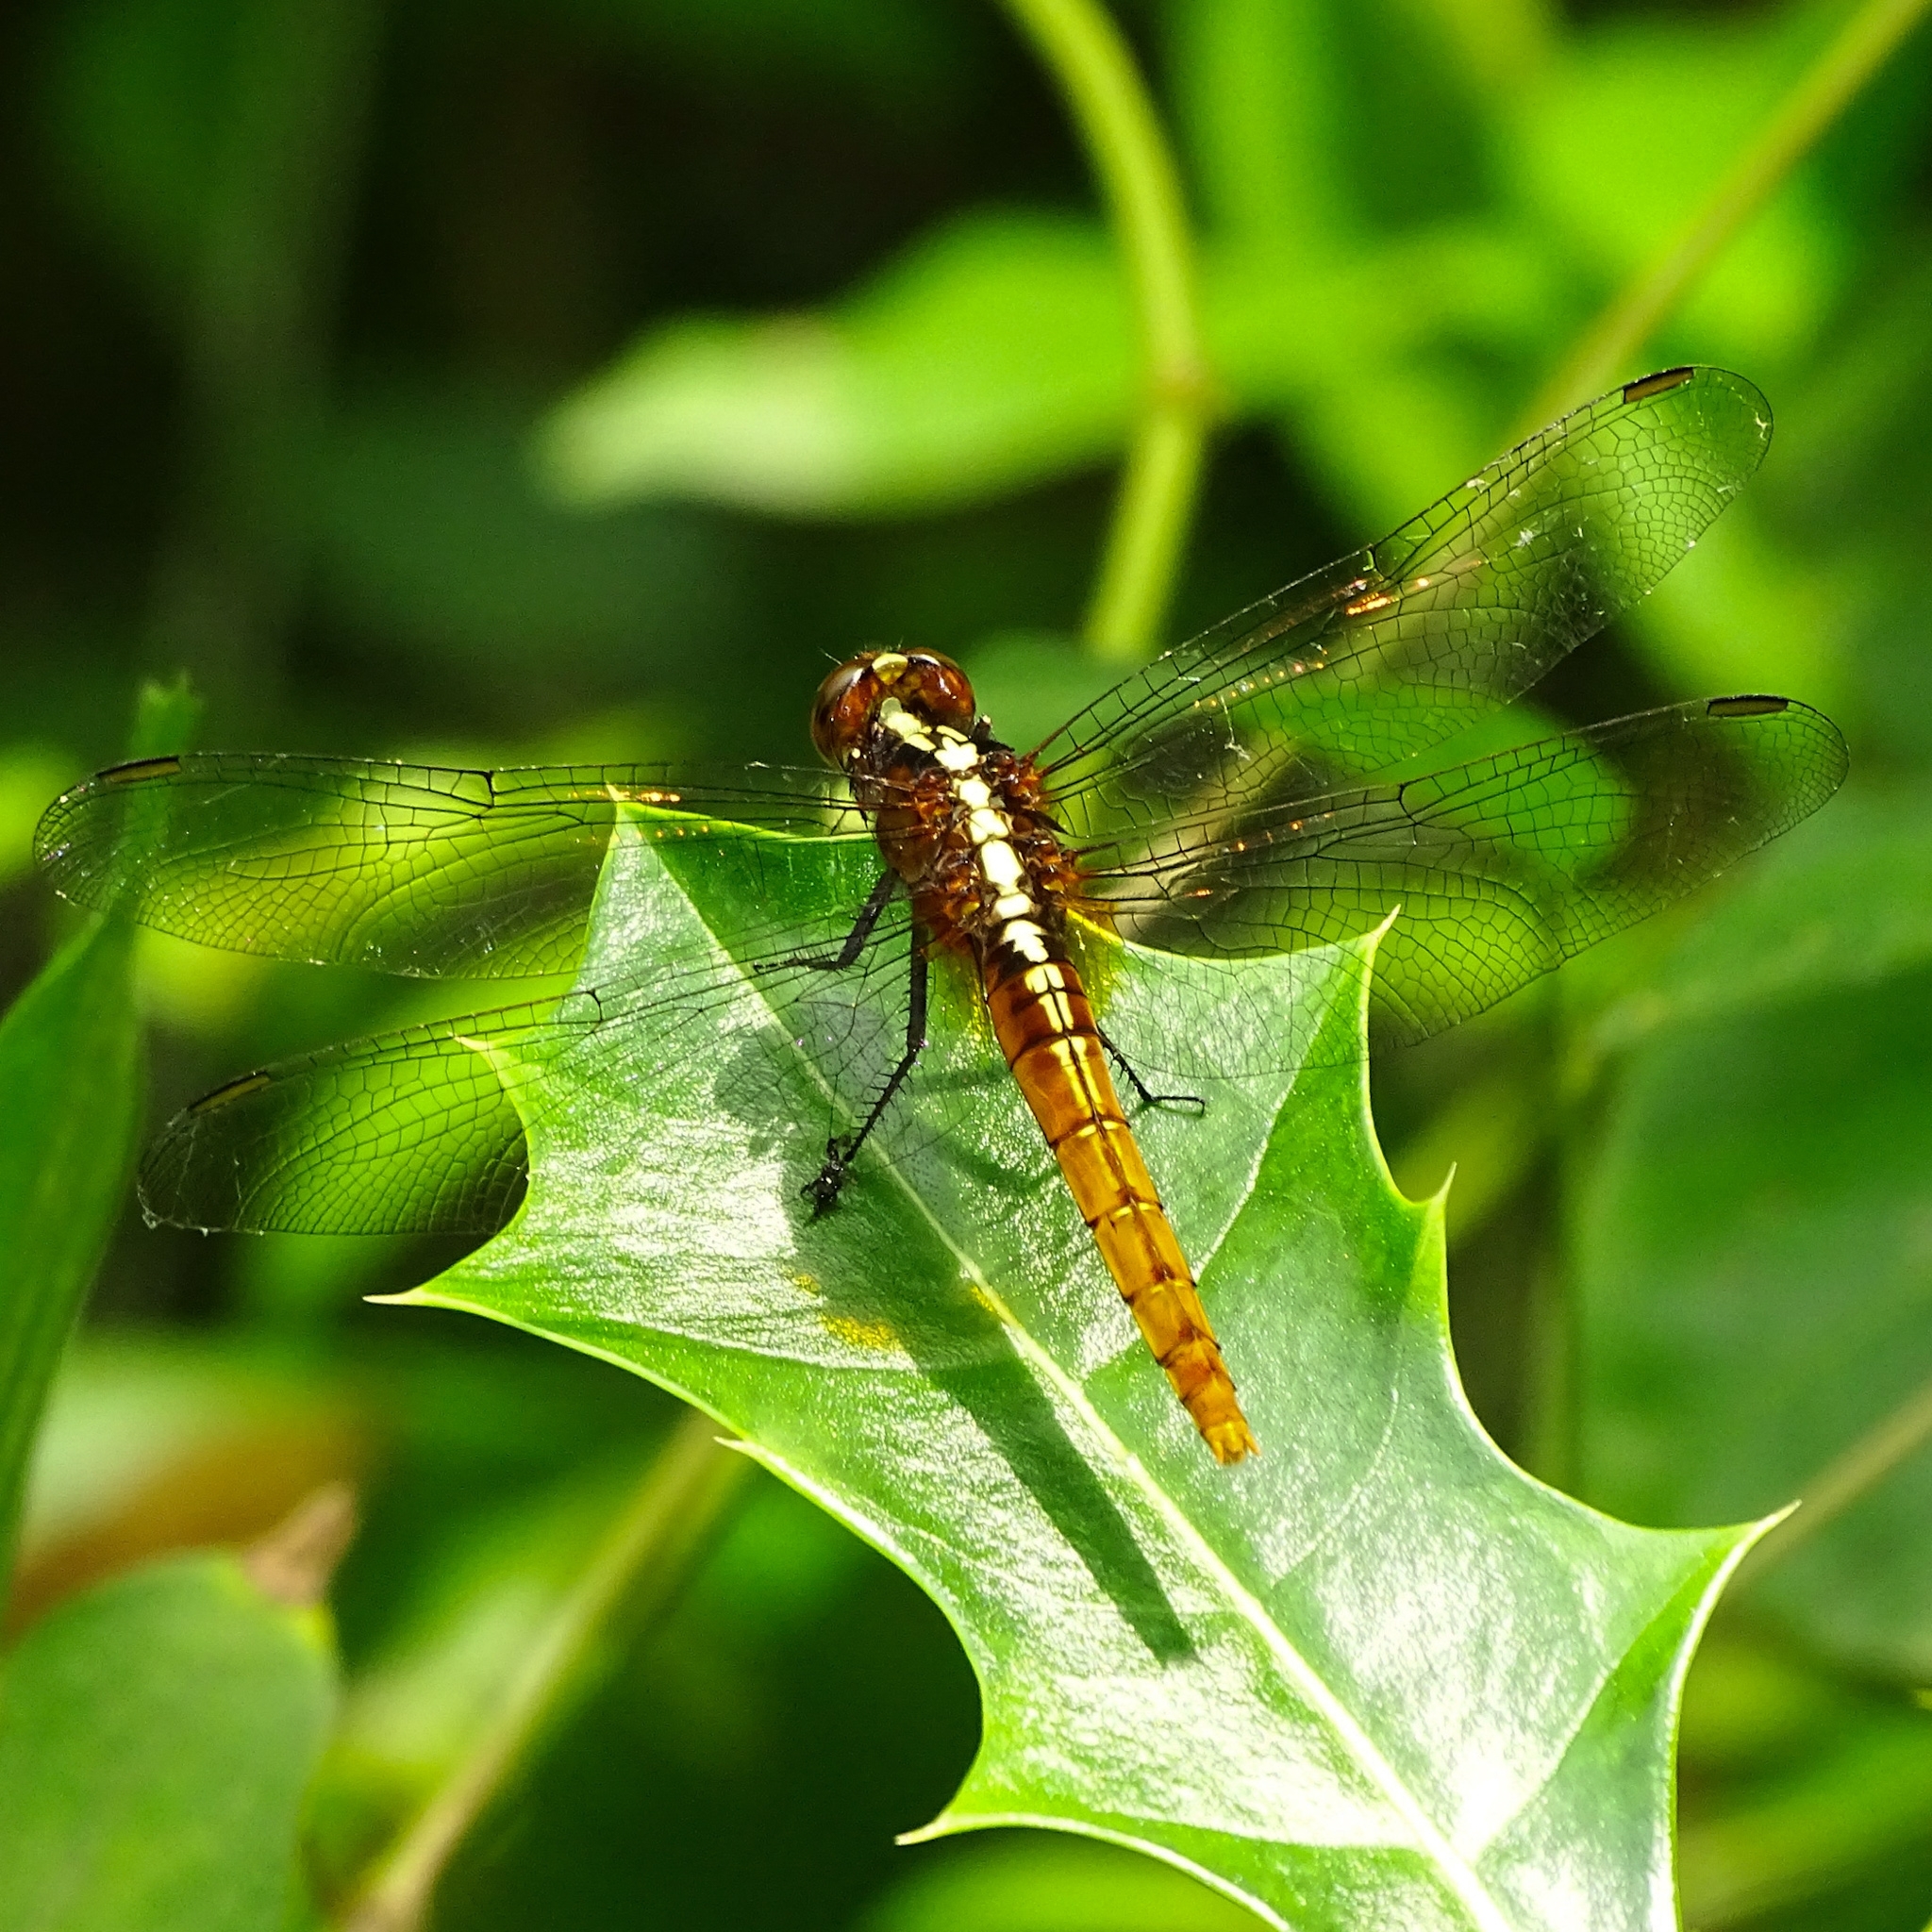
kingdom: Animalia
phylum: Arthropoda
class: Insecta
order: Odonata
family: Libellulidae
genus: Rhodothemis
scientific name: Rhodothemis rufa
